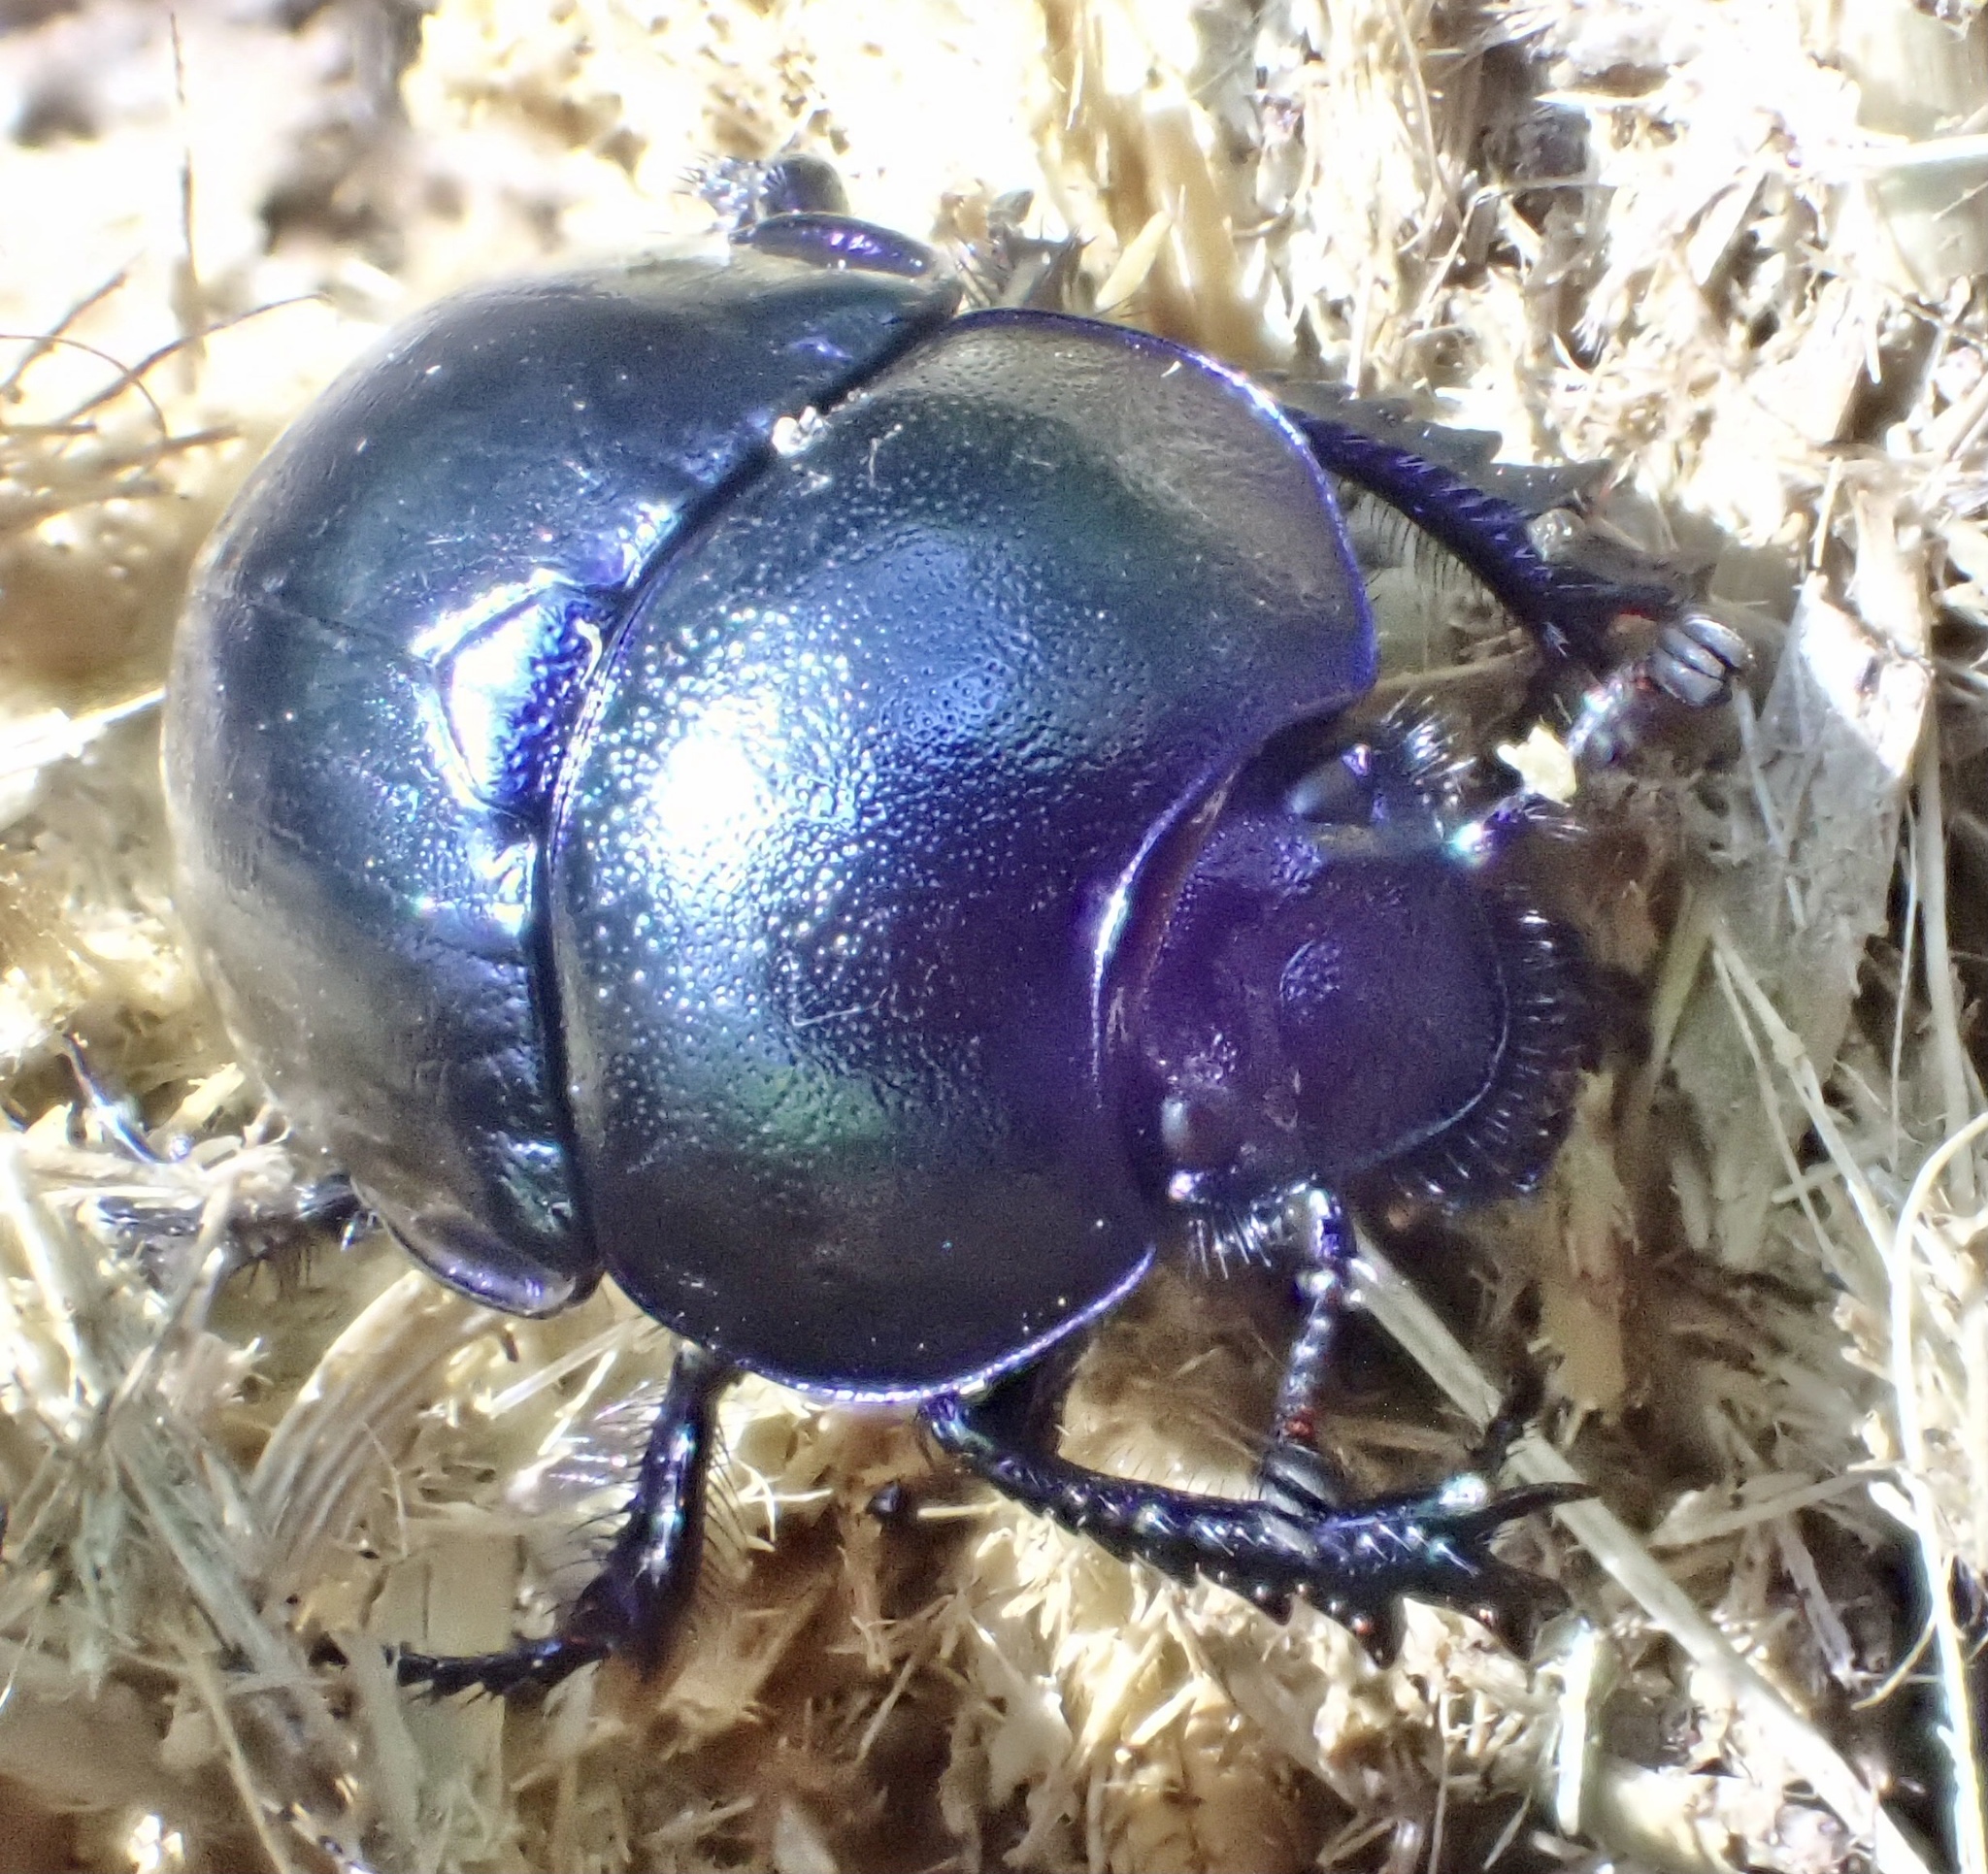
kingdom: Animalia
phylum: Arthropoda
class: Insecta
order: Coleoptera
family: Geotrupidae
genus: Trypocopris
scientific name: Trypocopris vernalis
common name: Spring dumbledor
